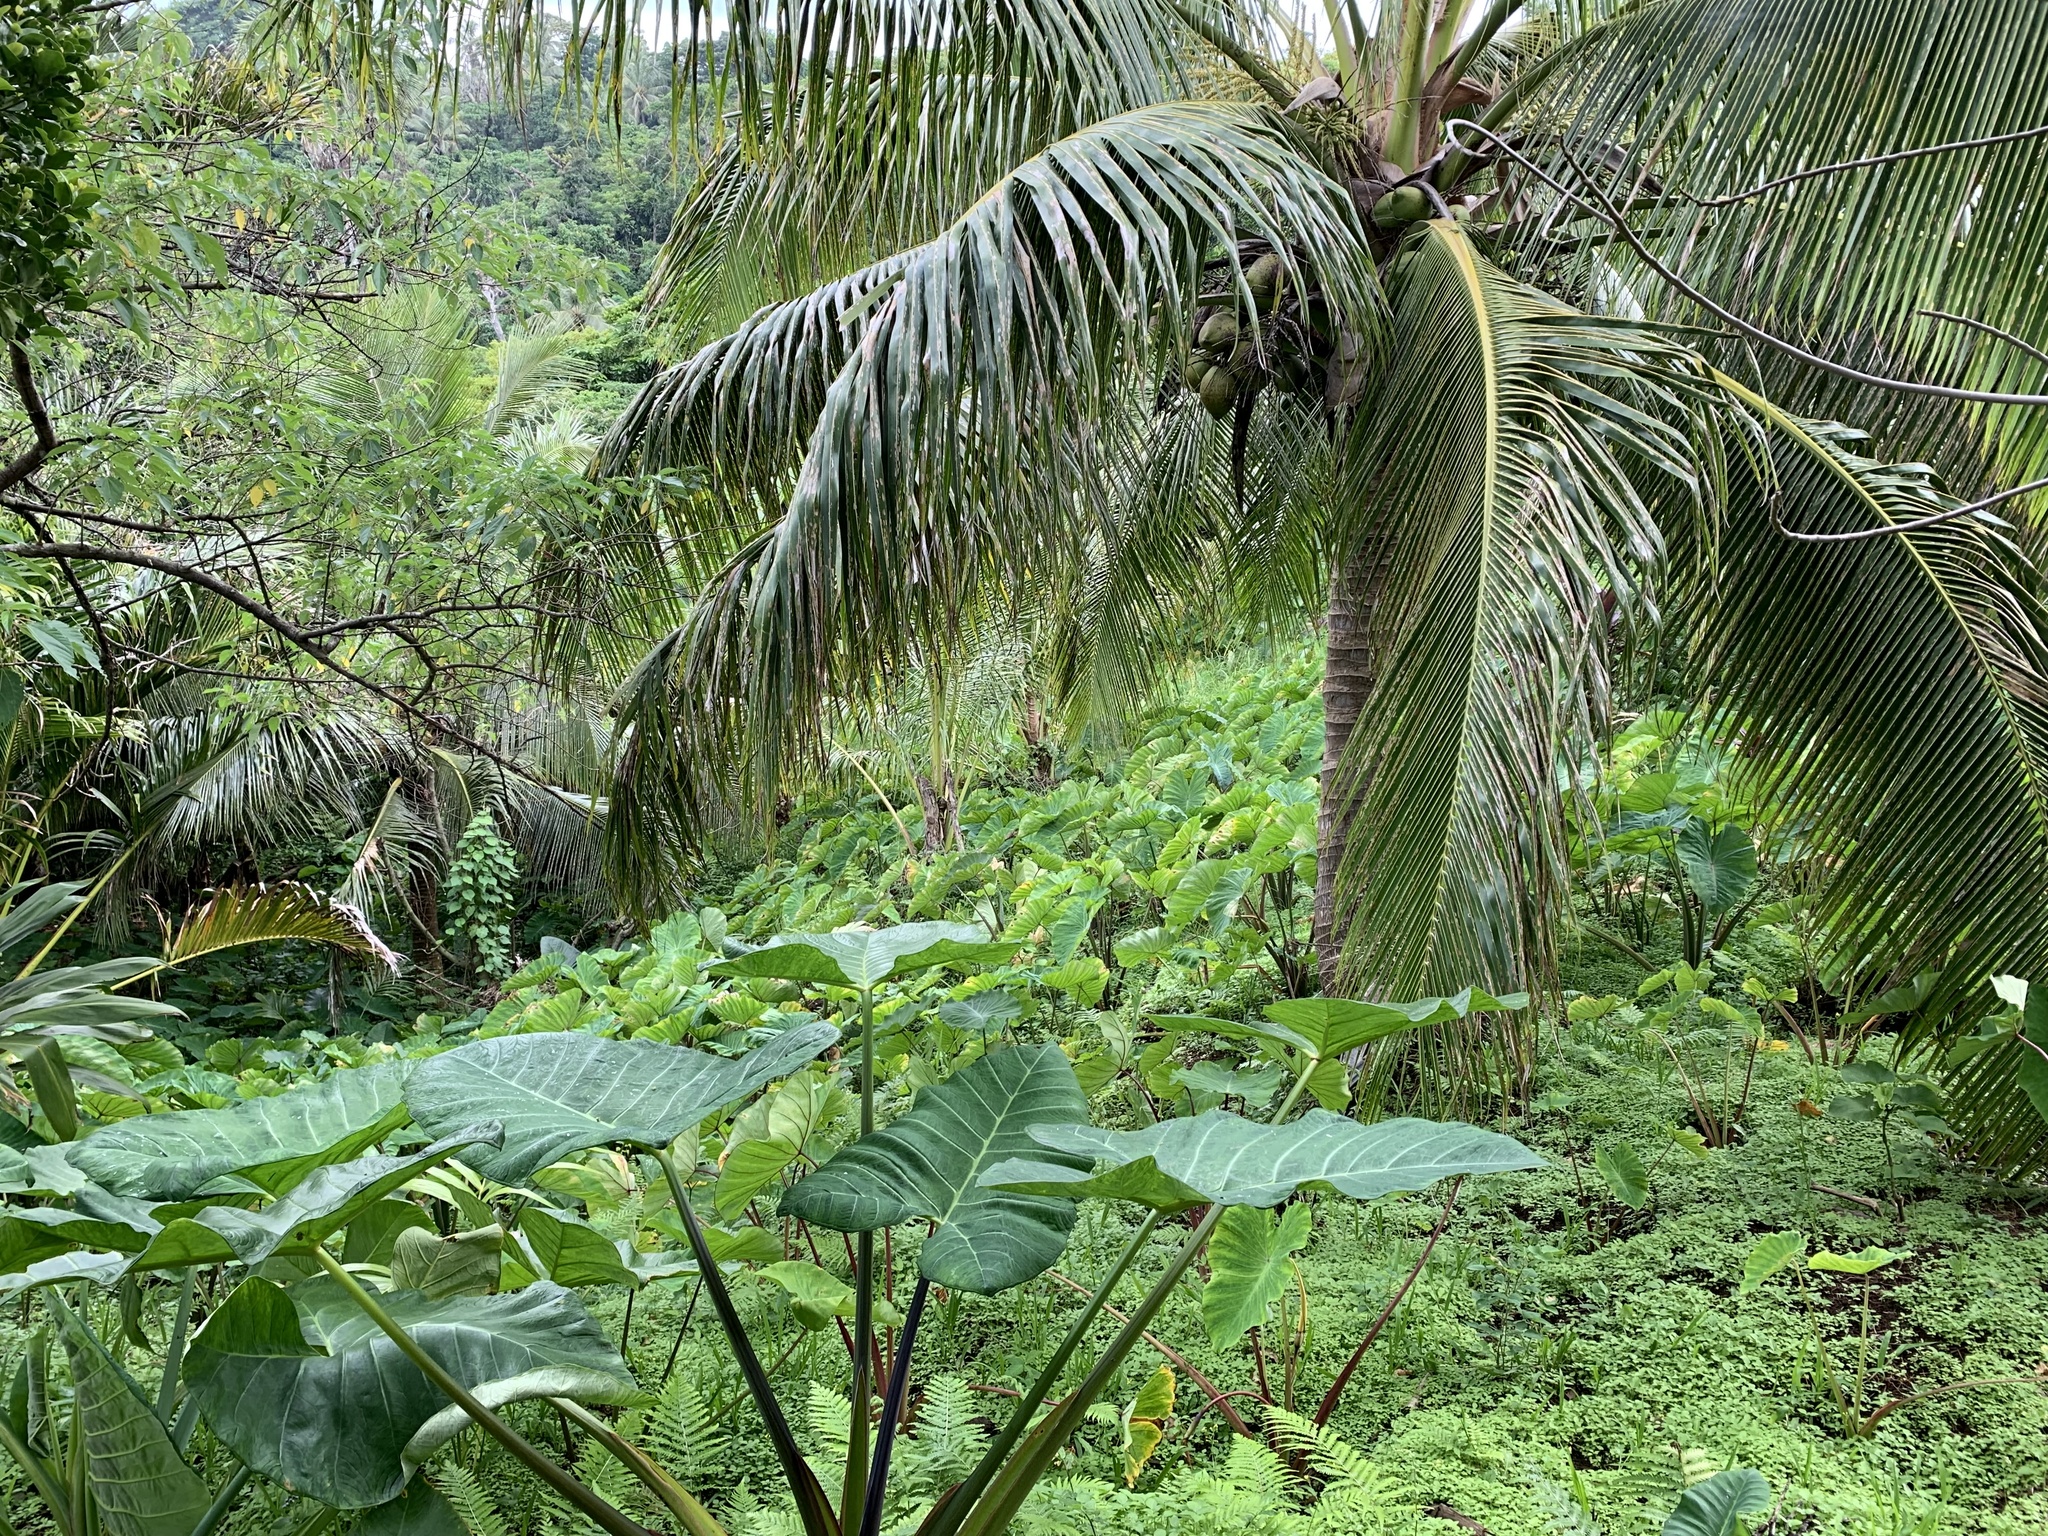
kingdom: Plantae
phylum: Tracheophyta
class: Liliopsida
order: Arecales
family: Arecaceae
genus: Cocos
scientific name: Cocos nucifera
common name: Coconut palm
